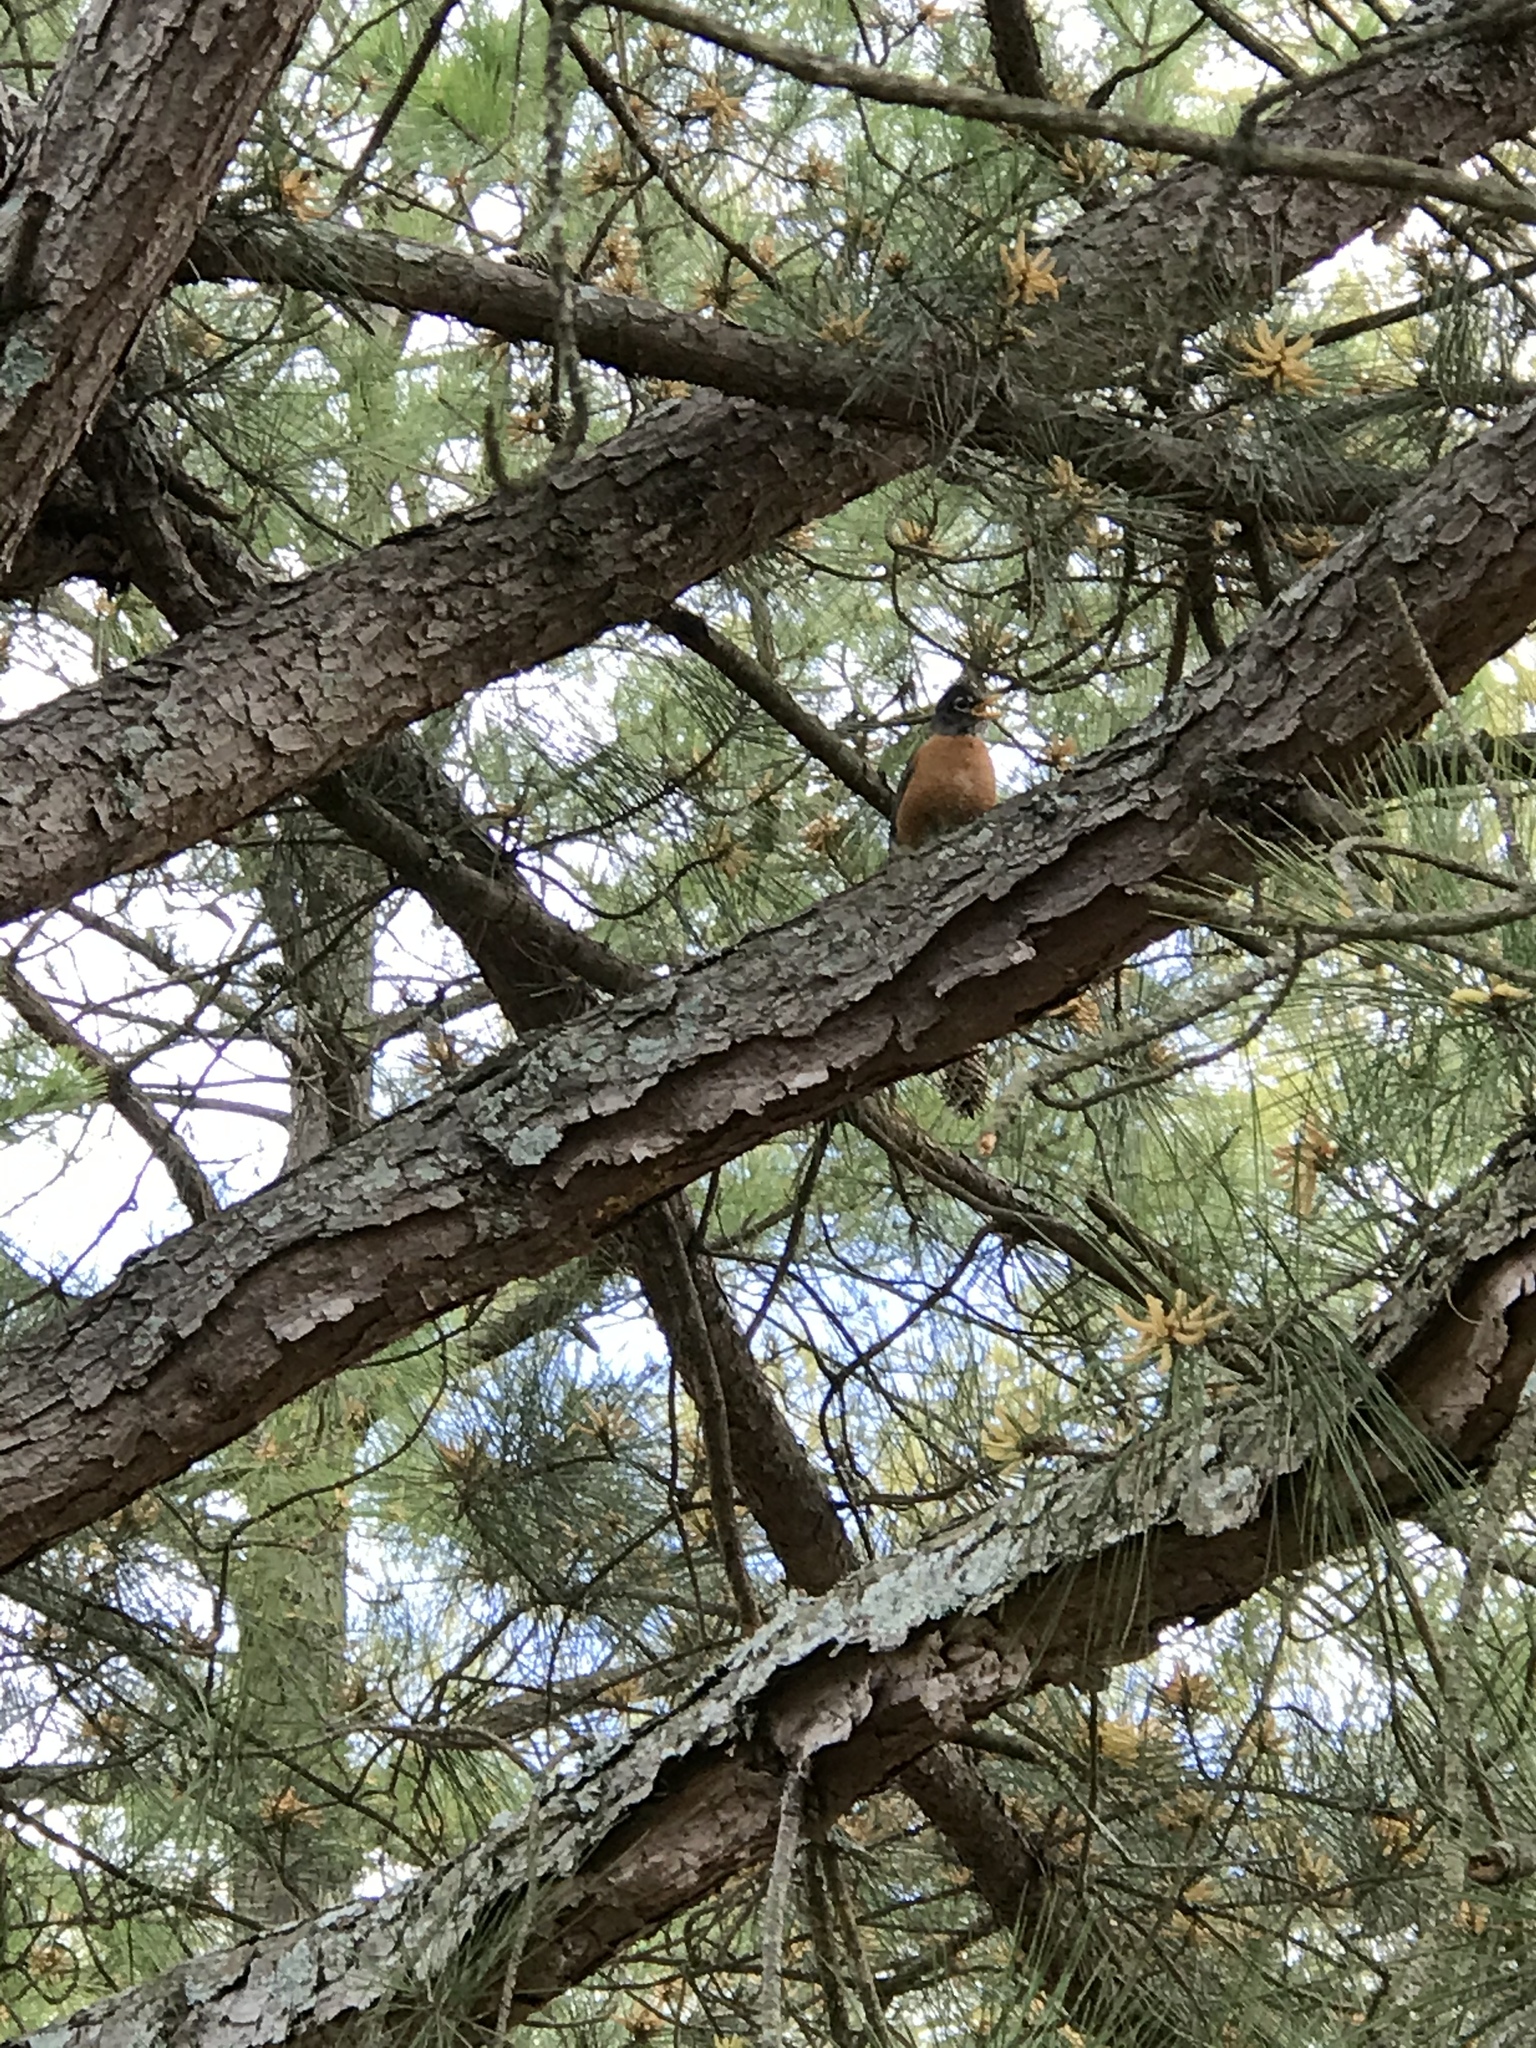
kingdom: Animalia
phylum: Chordata
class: Aves
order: Passeriformes
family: Turdidae
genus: Turdus
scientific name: Turdus migratorius
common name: American robin
